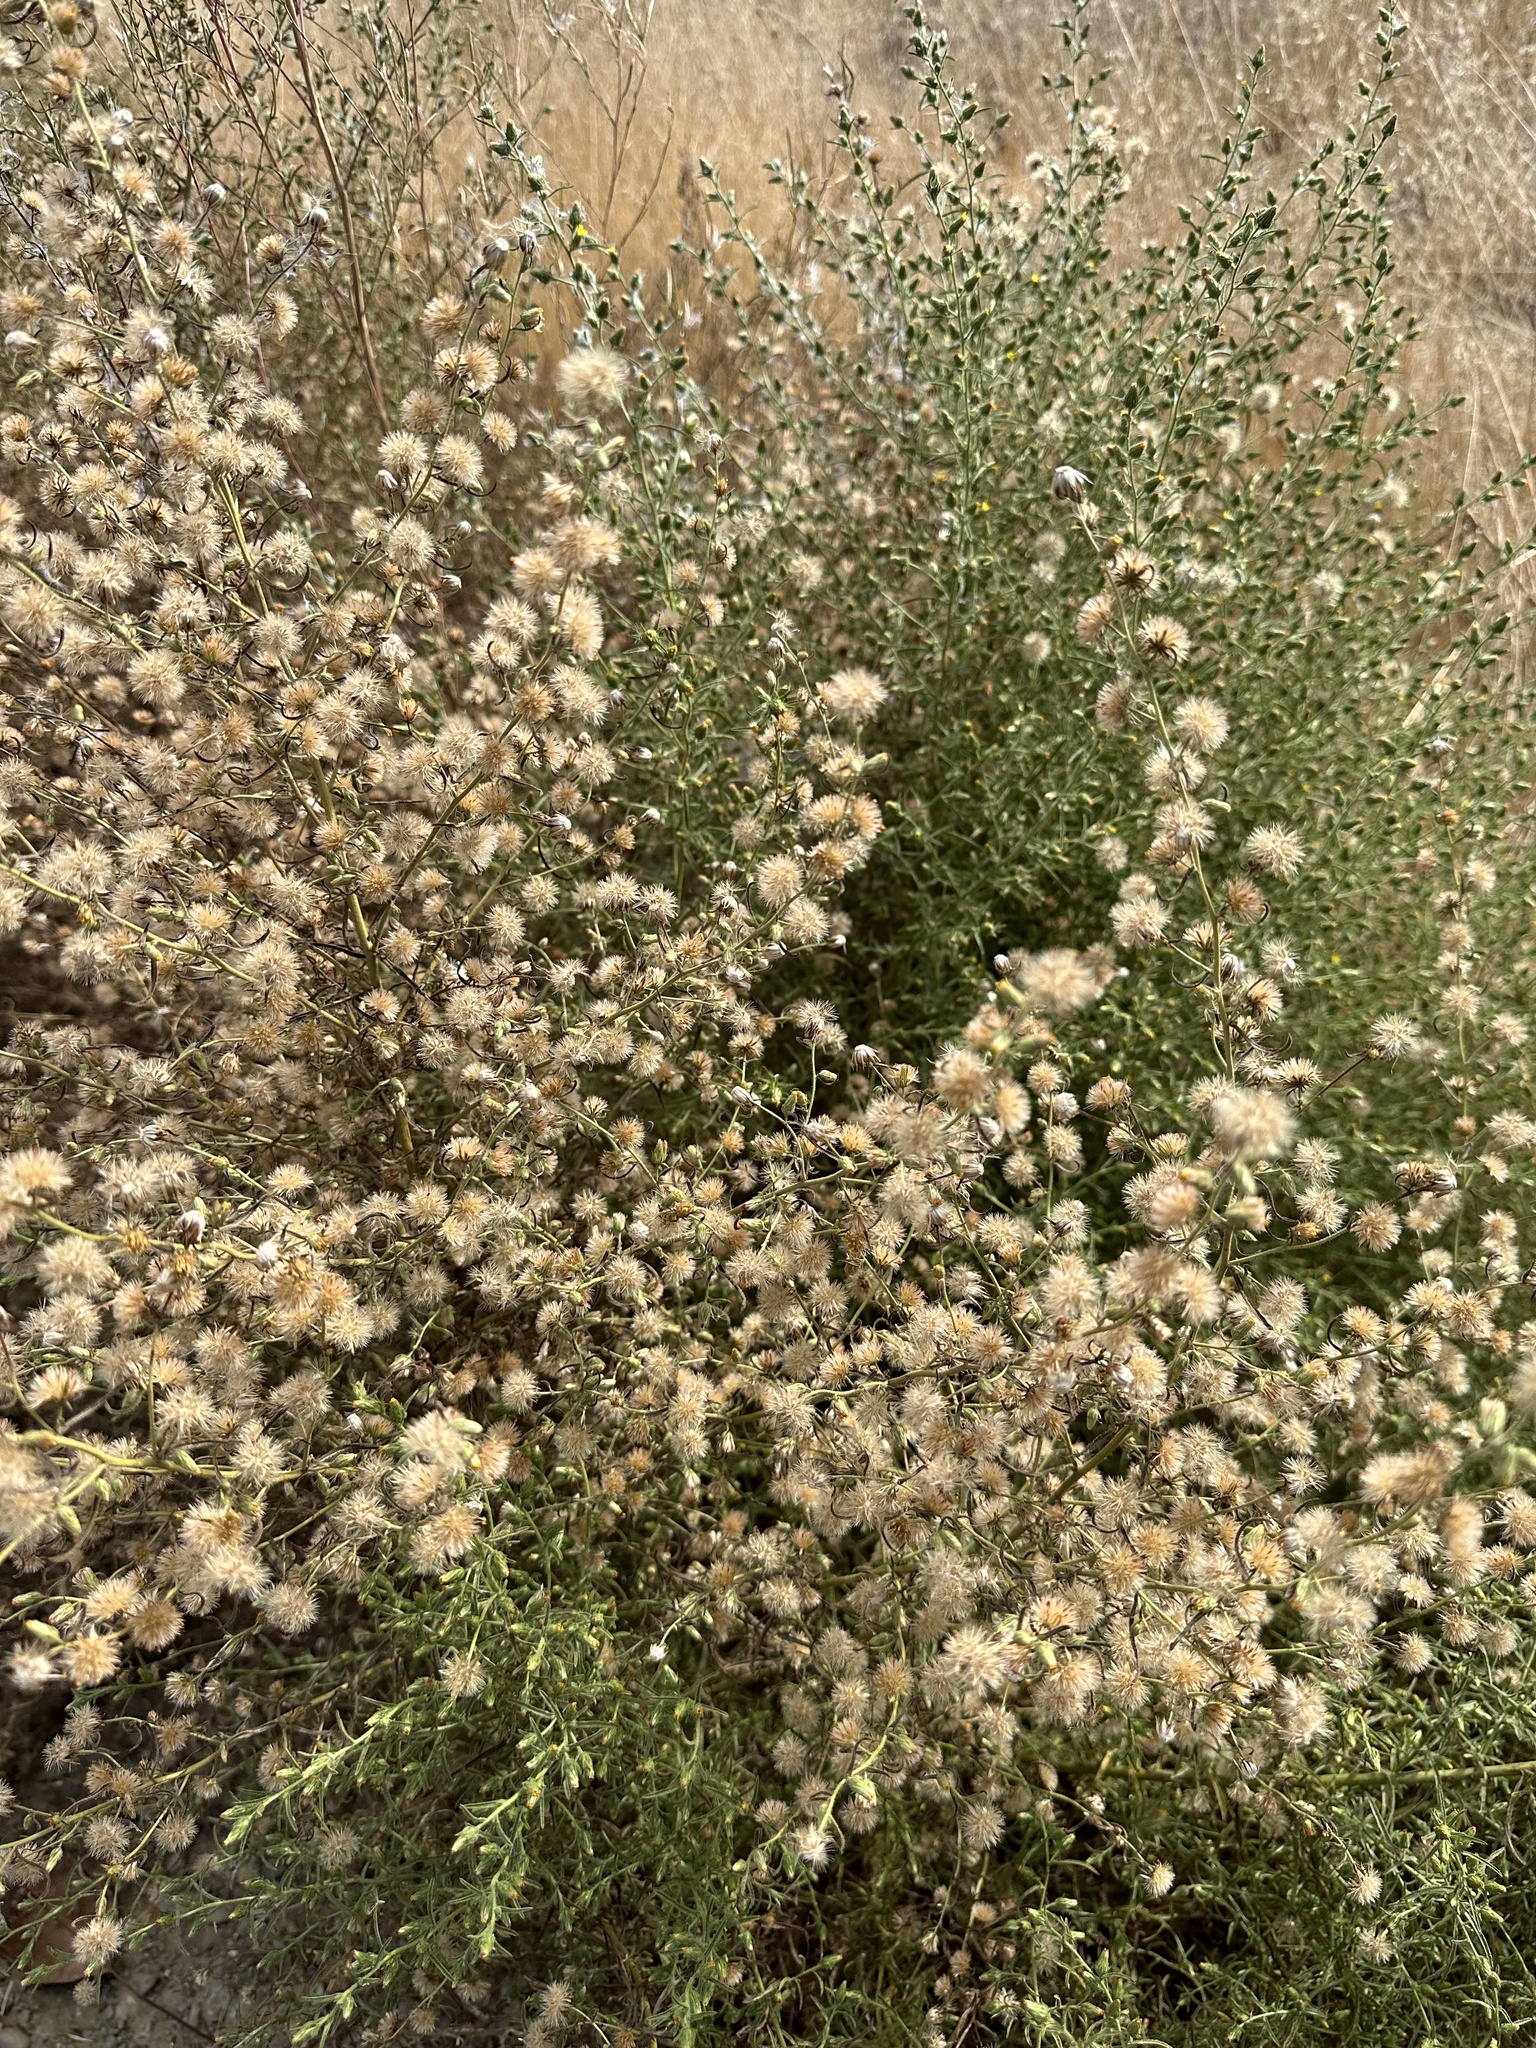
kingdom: Plantae
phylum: Tracheophyta
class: Magnoliopsida
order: Asterales
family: Asteraceae
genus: Dittrichia
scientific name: Dittrichia graveolens
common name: Stinking fleabane
